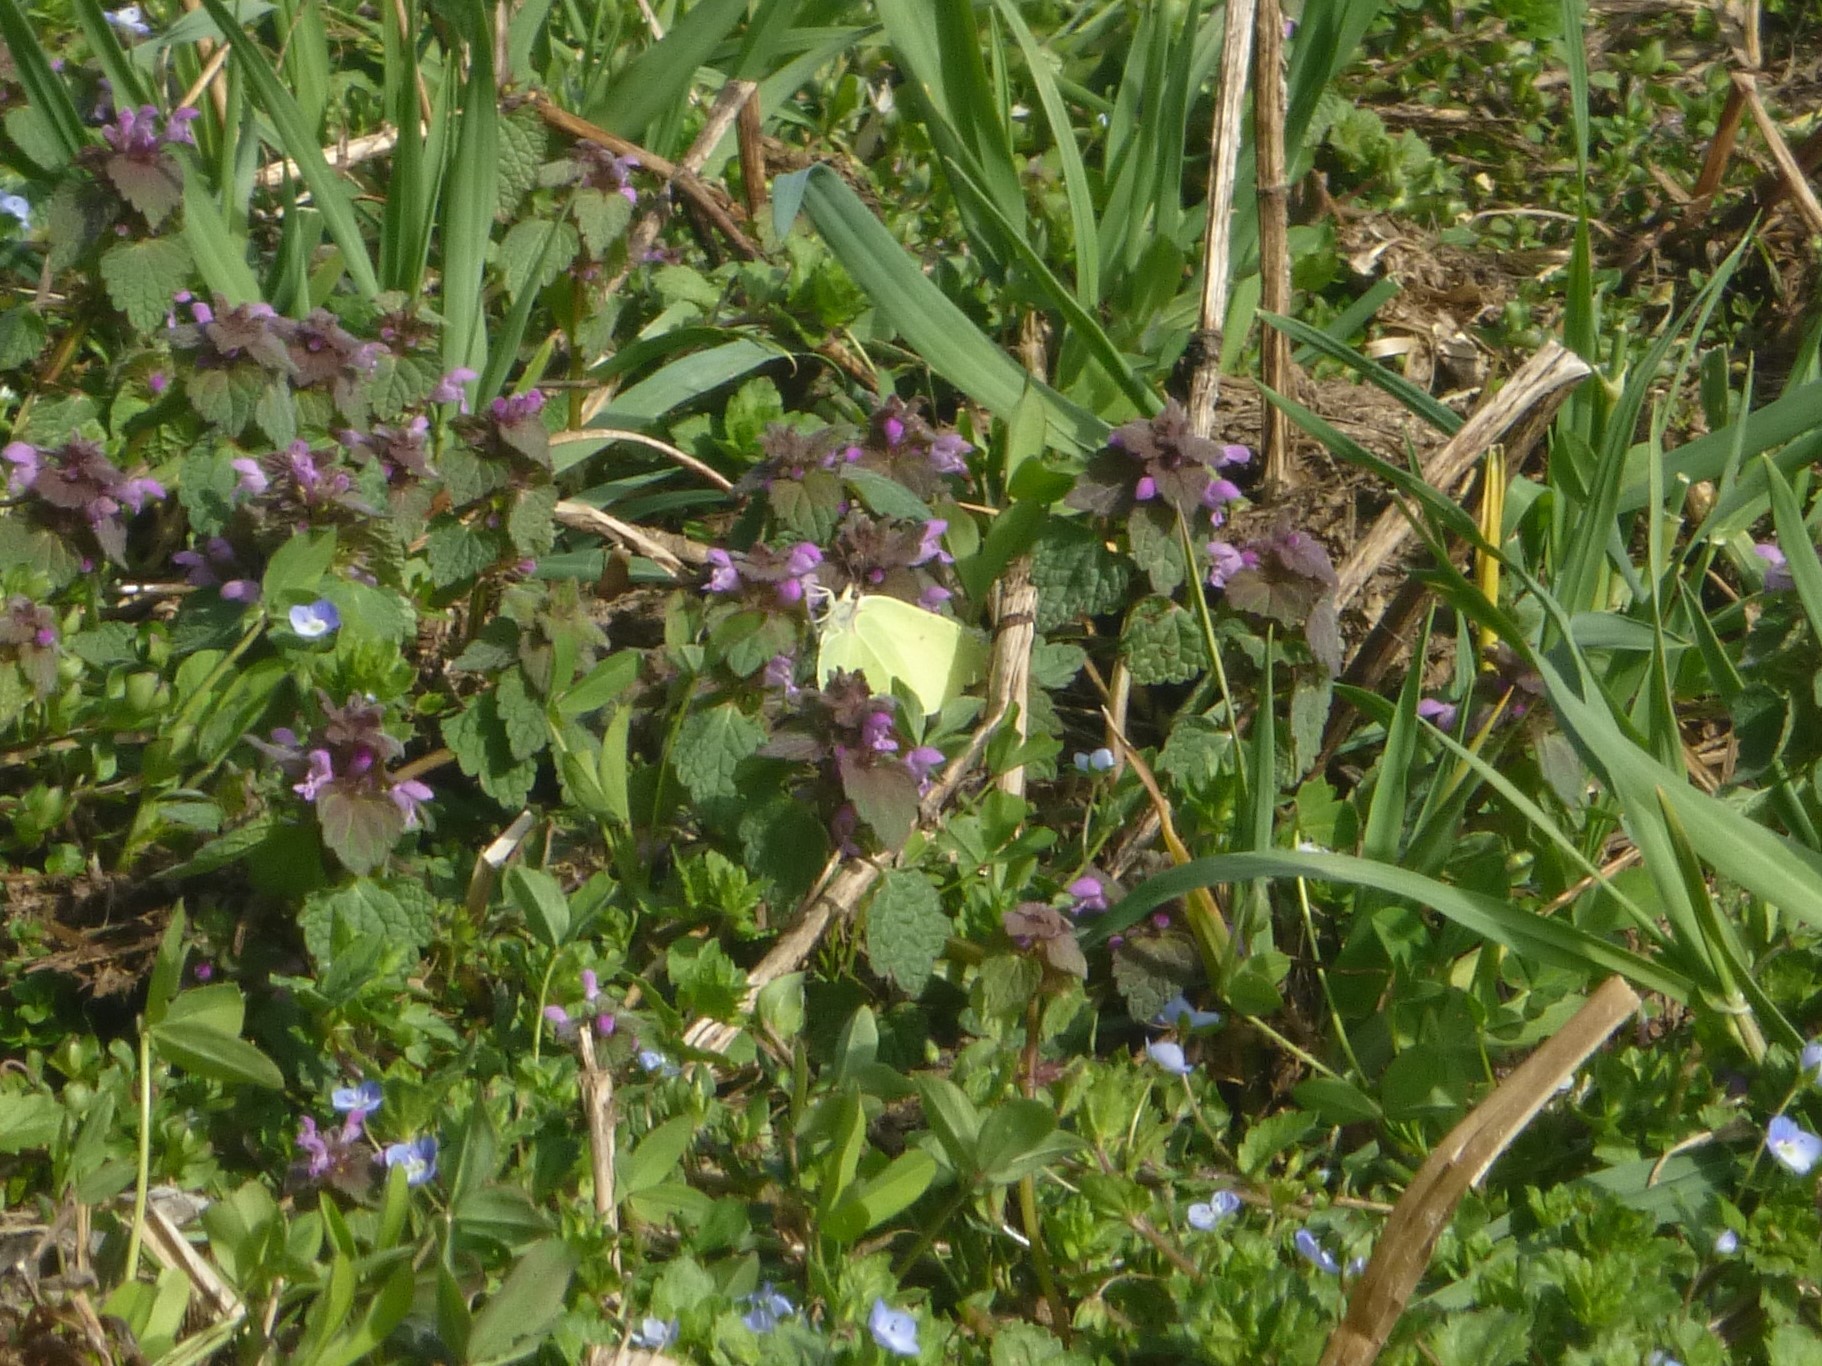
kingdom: Plantae
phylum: Tracheophyta
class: Magnoliopsida
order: Lamiales
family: Lamiaceae
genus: Lamium
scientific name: Lamium purpureum
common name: Red dead-nettle
